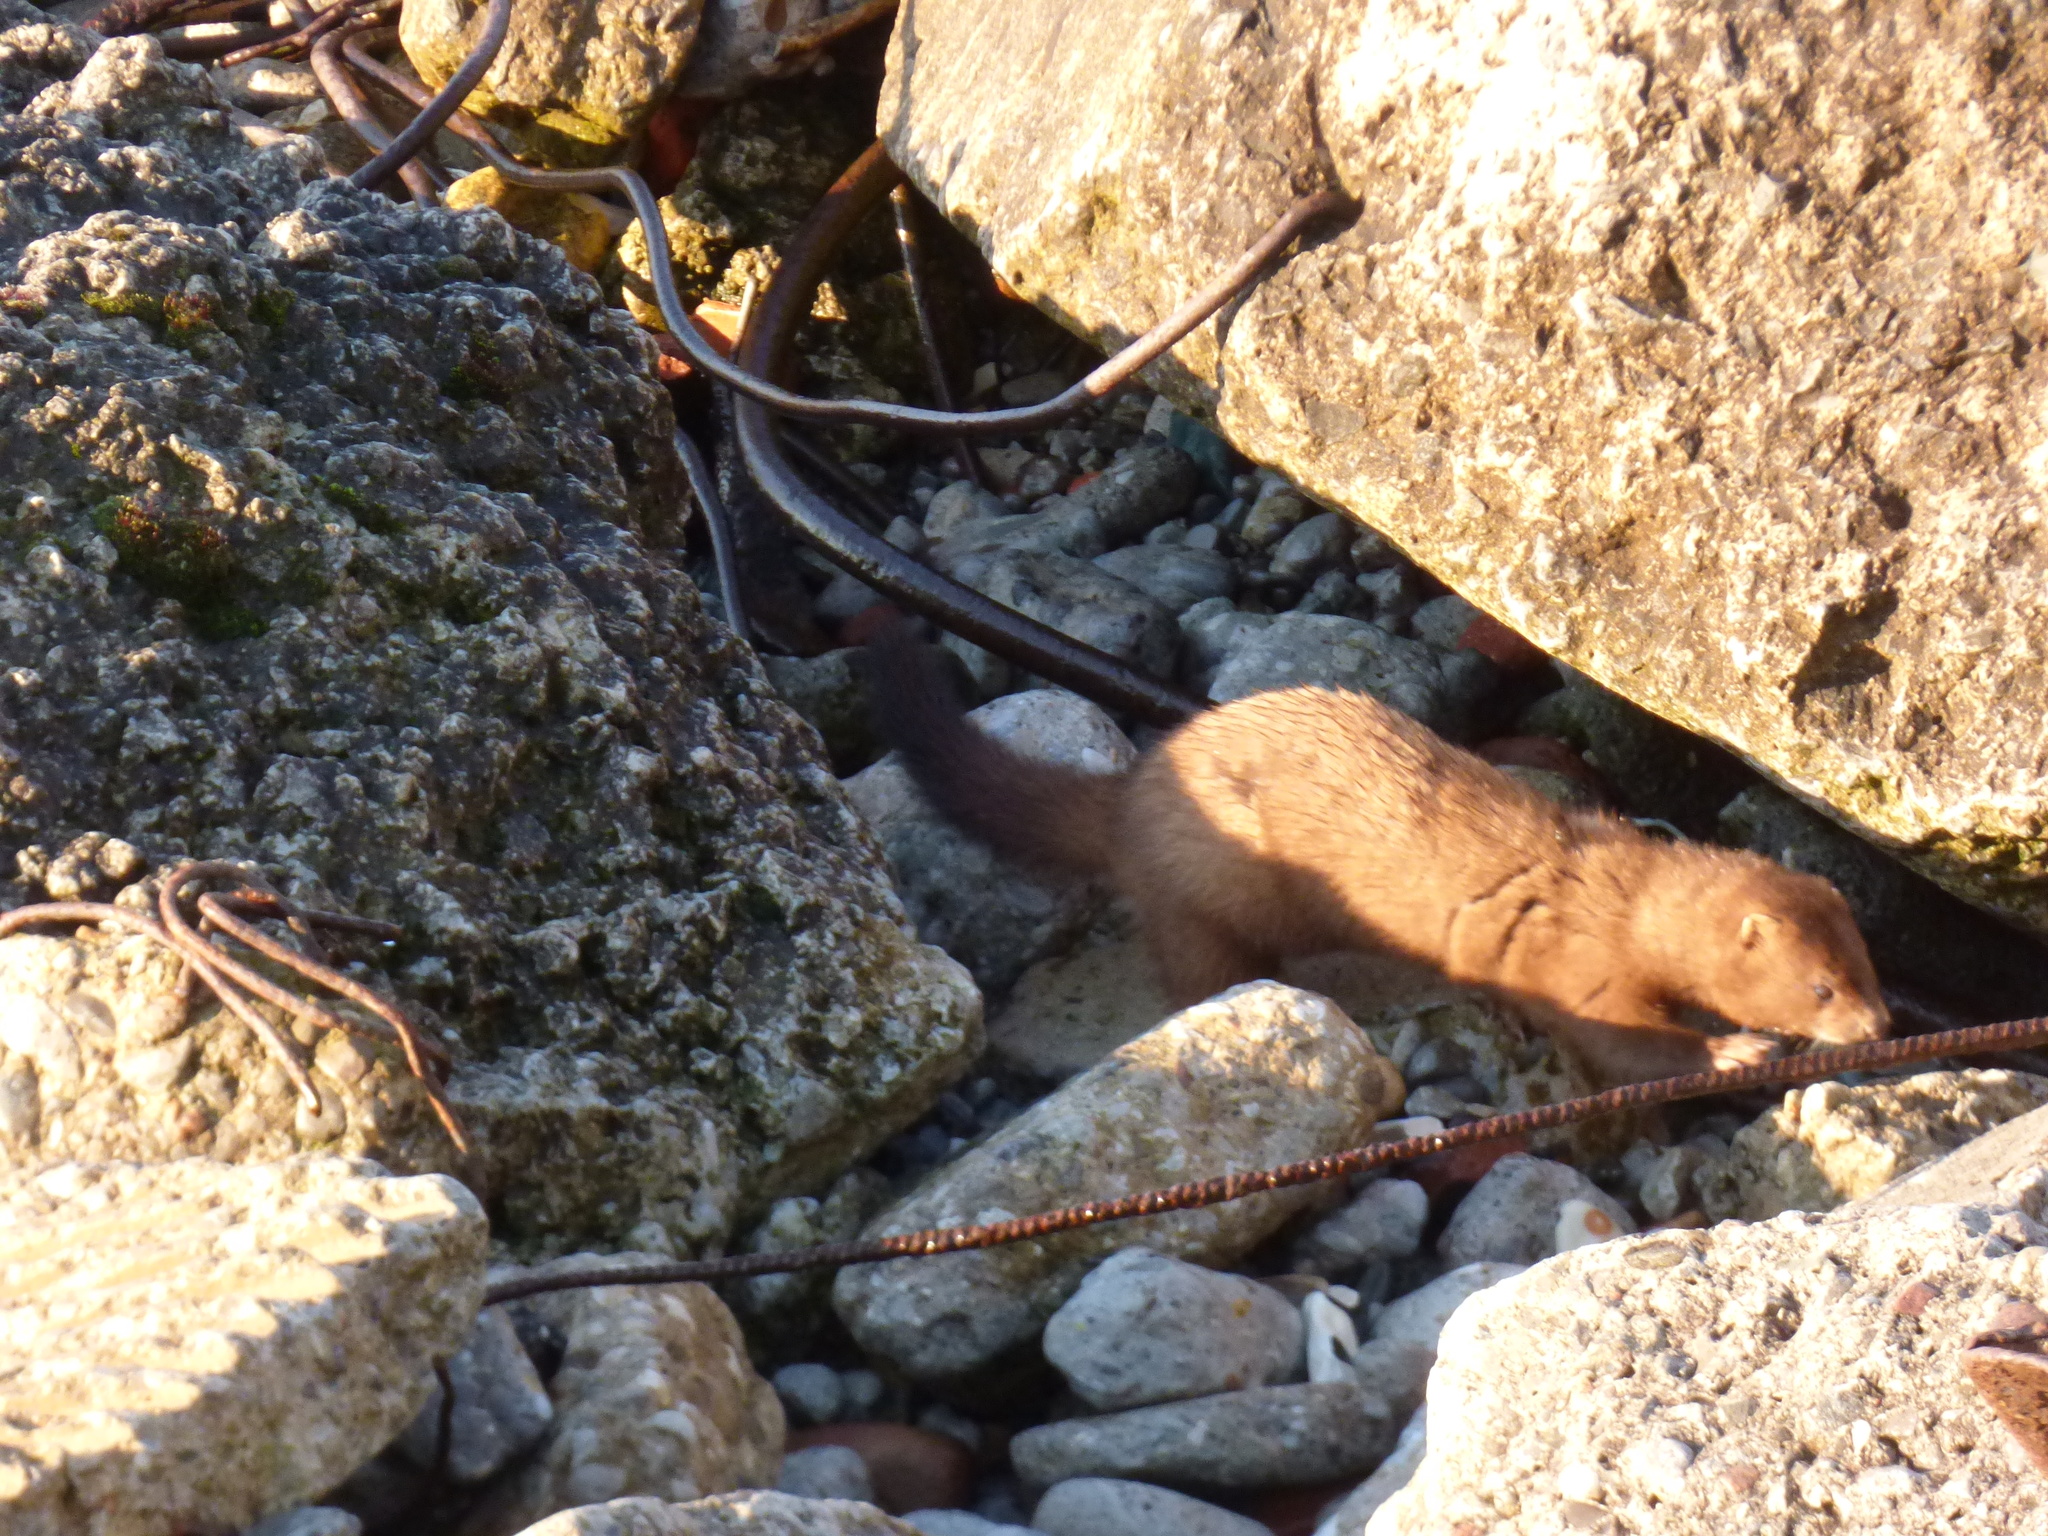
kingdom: Animalia
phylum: Chordata
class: Mammalia
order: Carnivora
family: Mustelidae
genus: Mustela
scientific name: Mustela
